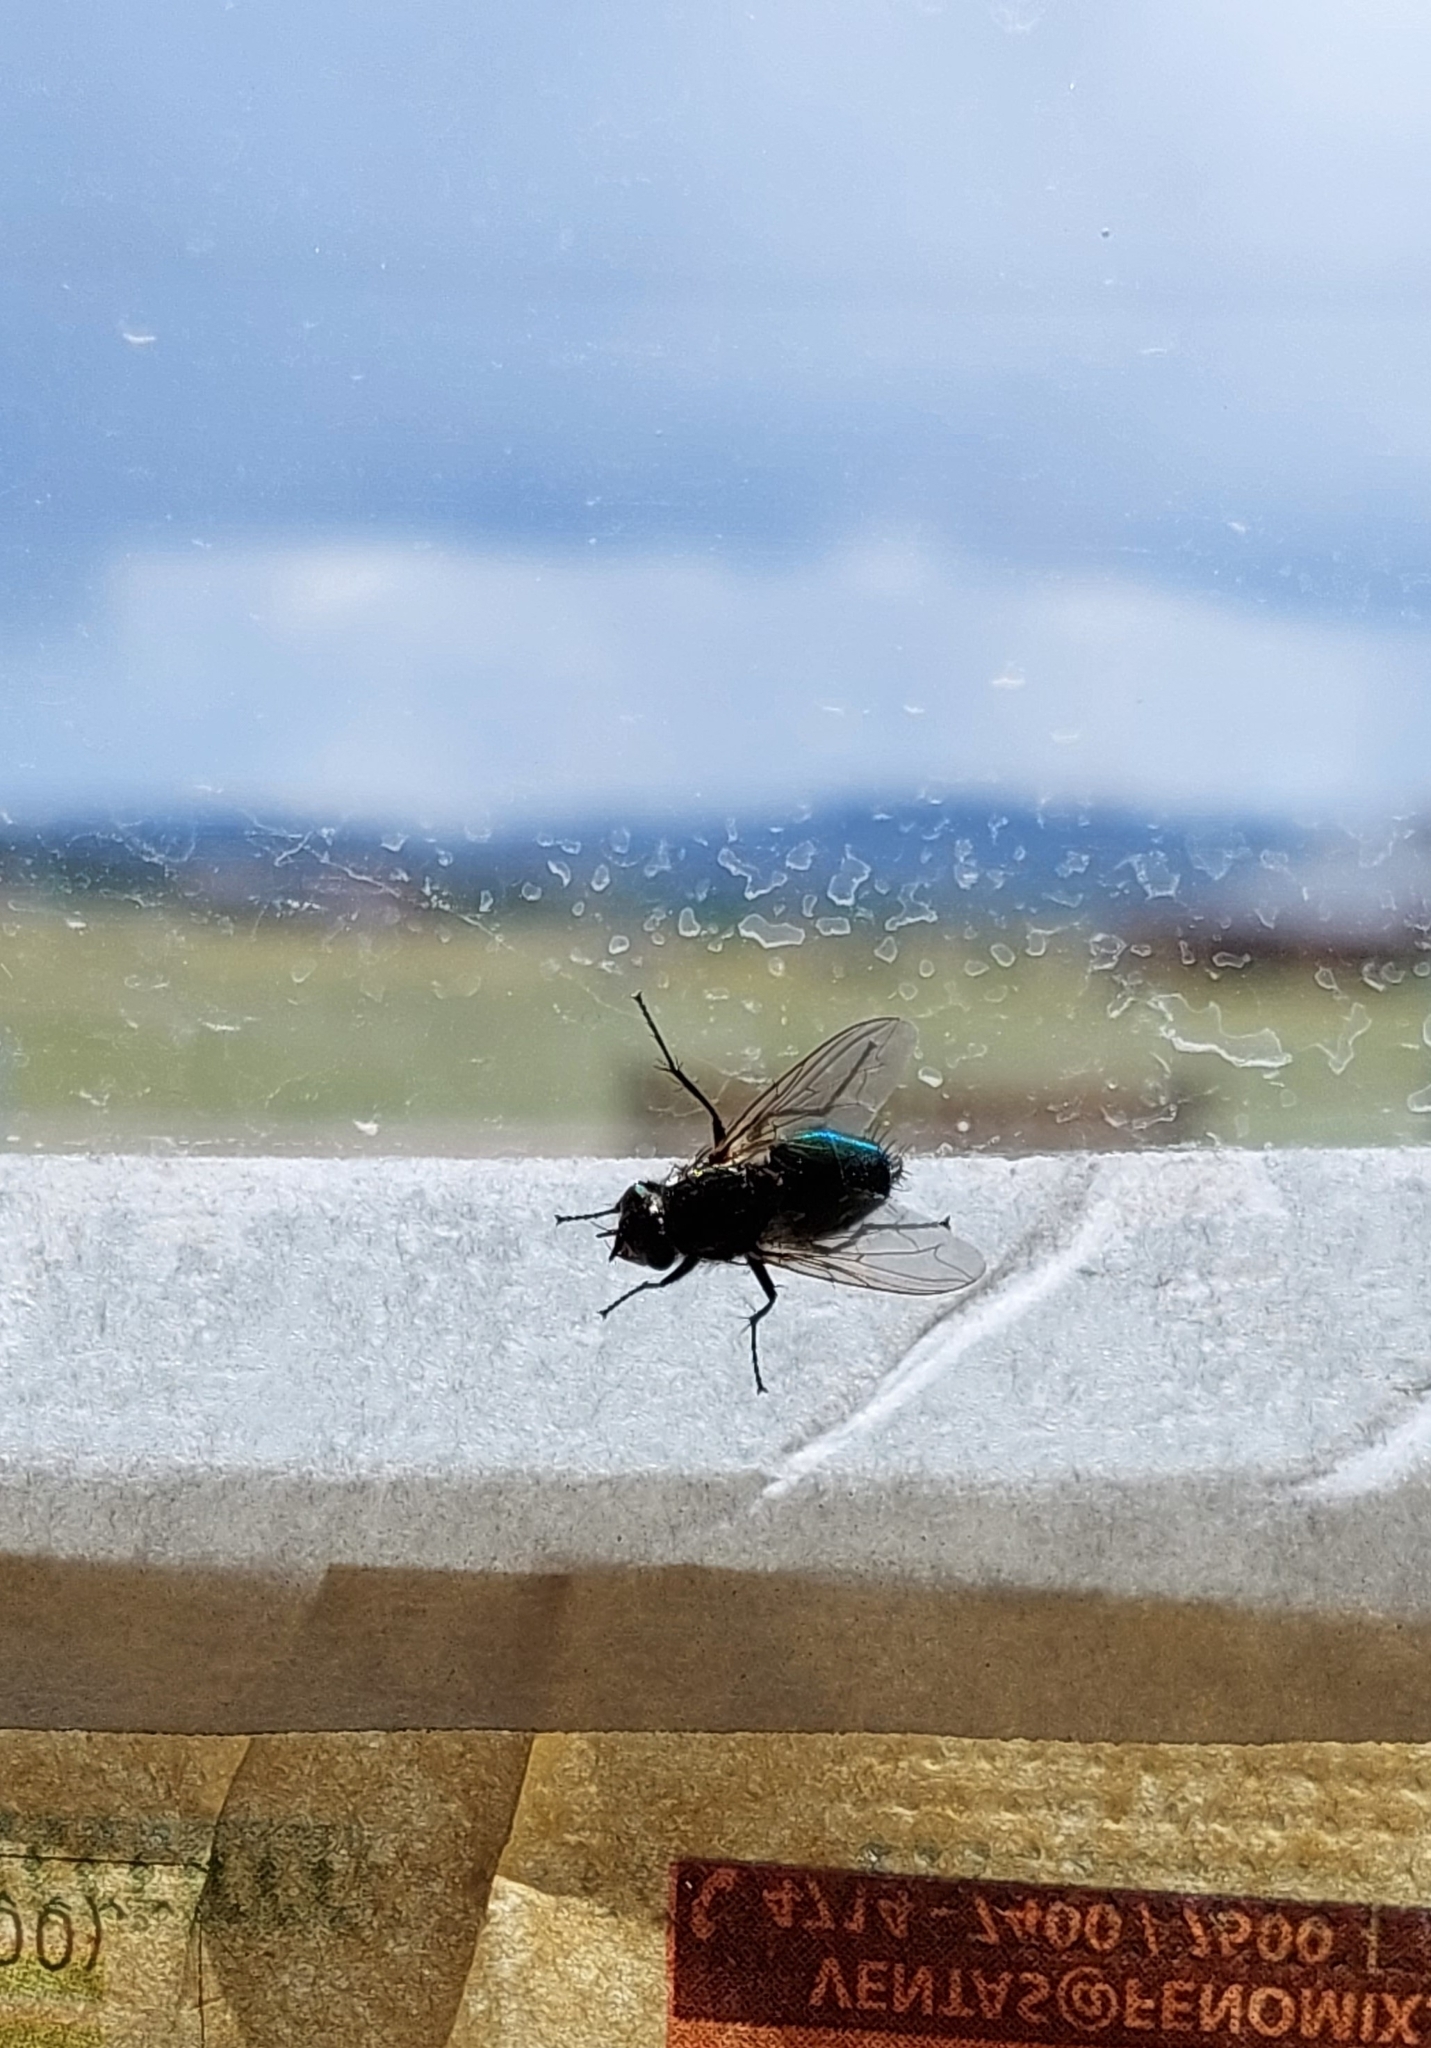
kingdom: Animalia
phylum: Arthropoda
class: Insecta
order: Diptera
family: Calliphoridae
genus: Sarconesia
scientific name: Sarconesia chlorogaster
